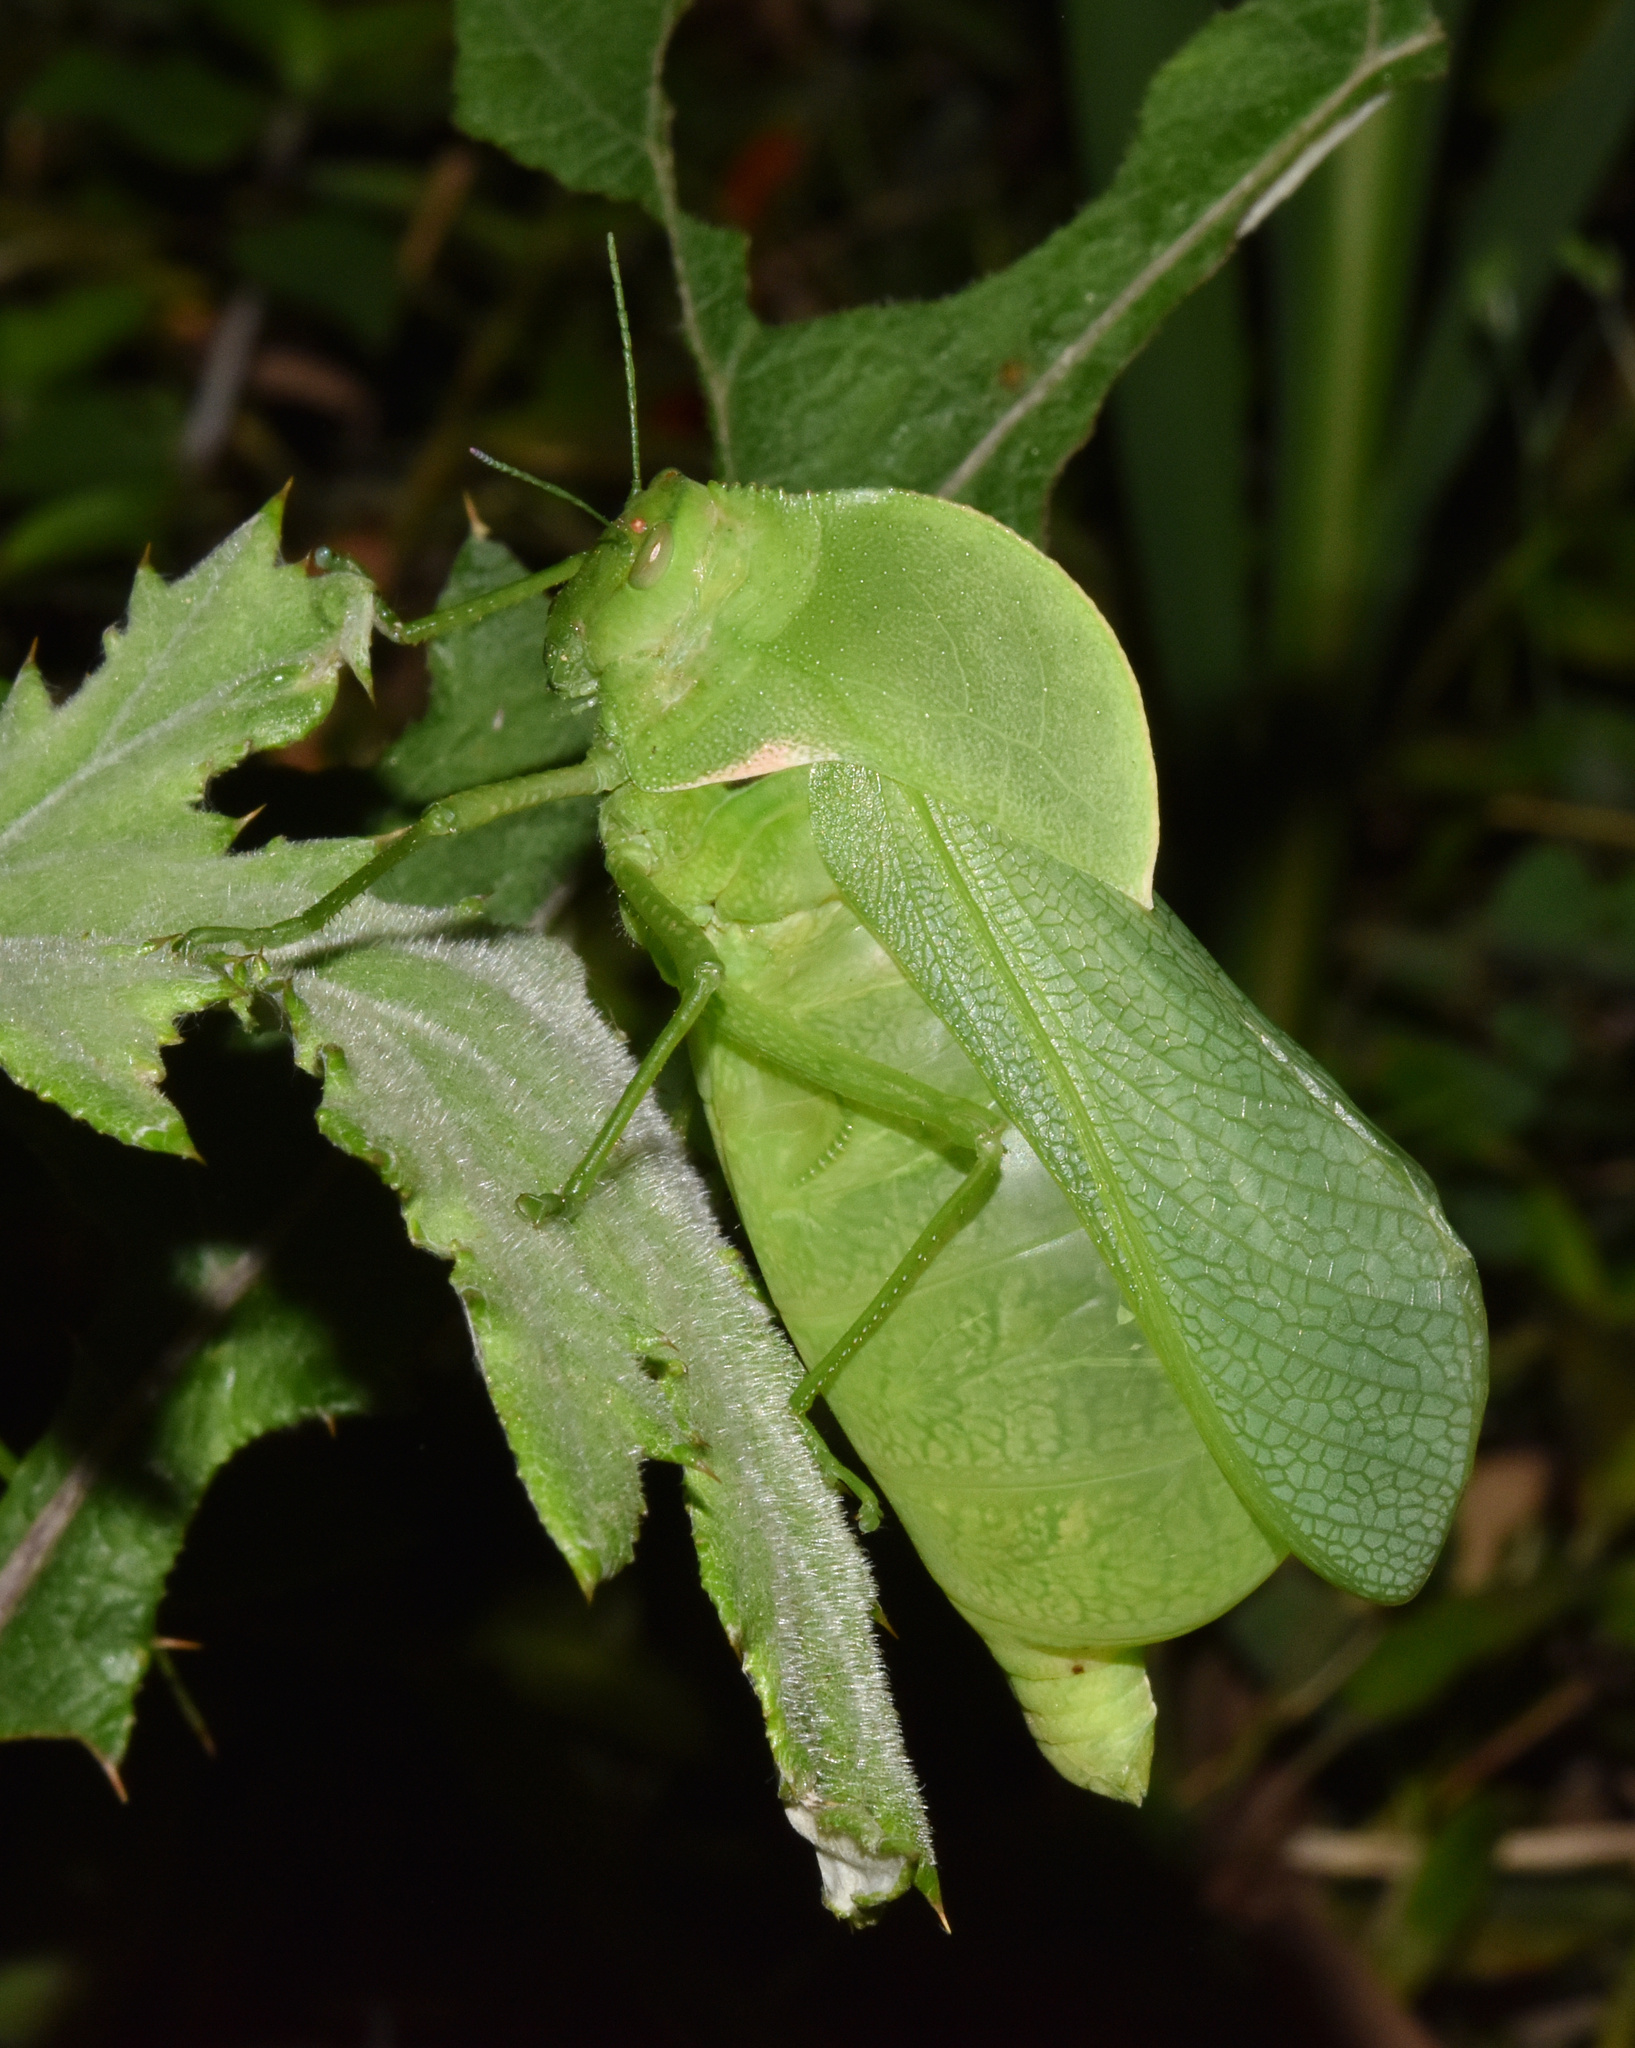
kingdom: Animalia
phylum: Arthropoda
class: Insecta
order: Orthoptera
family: Pneumoridae
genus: Bullacris
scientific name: Bullacris membracioides
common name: Bishop
